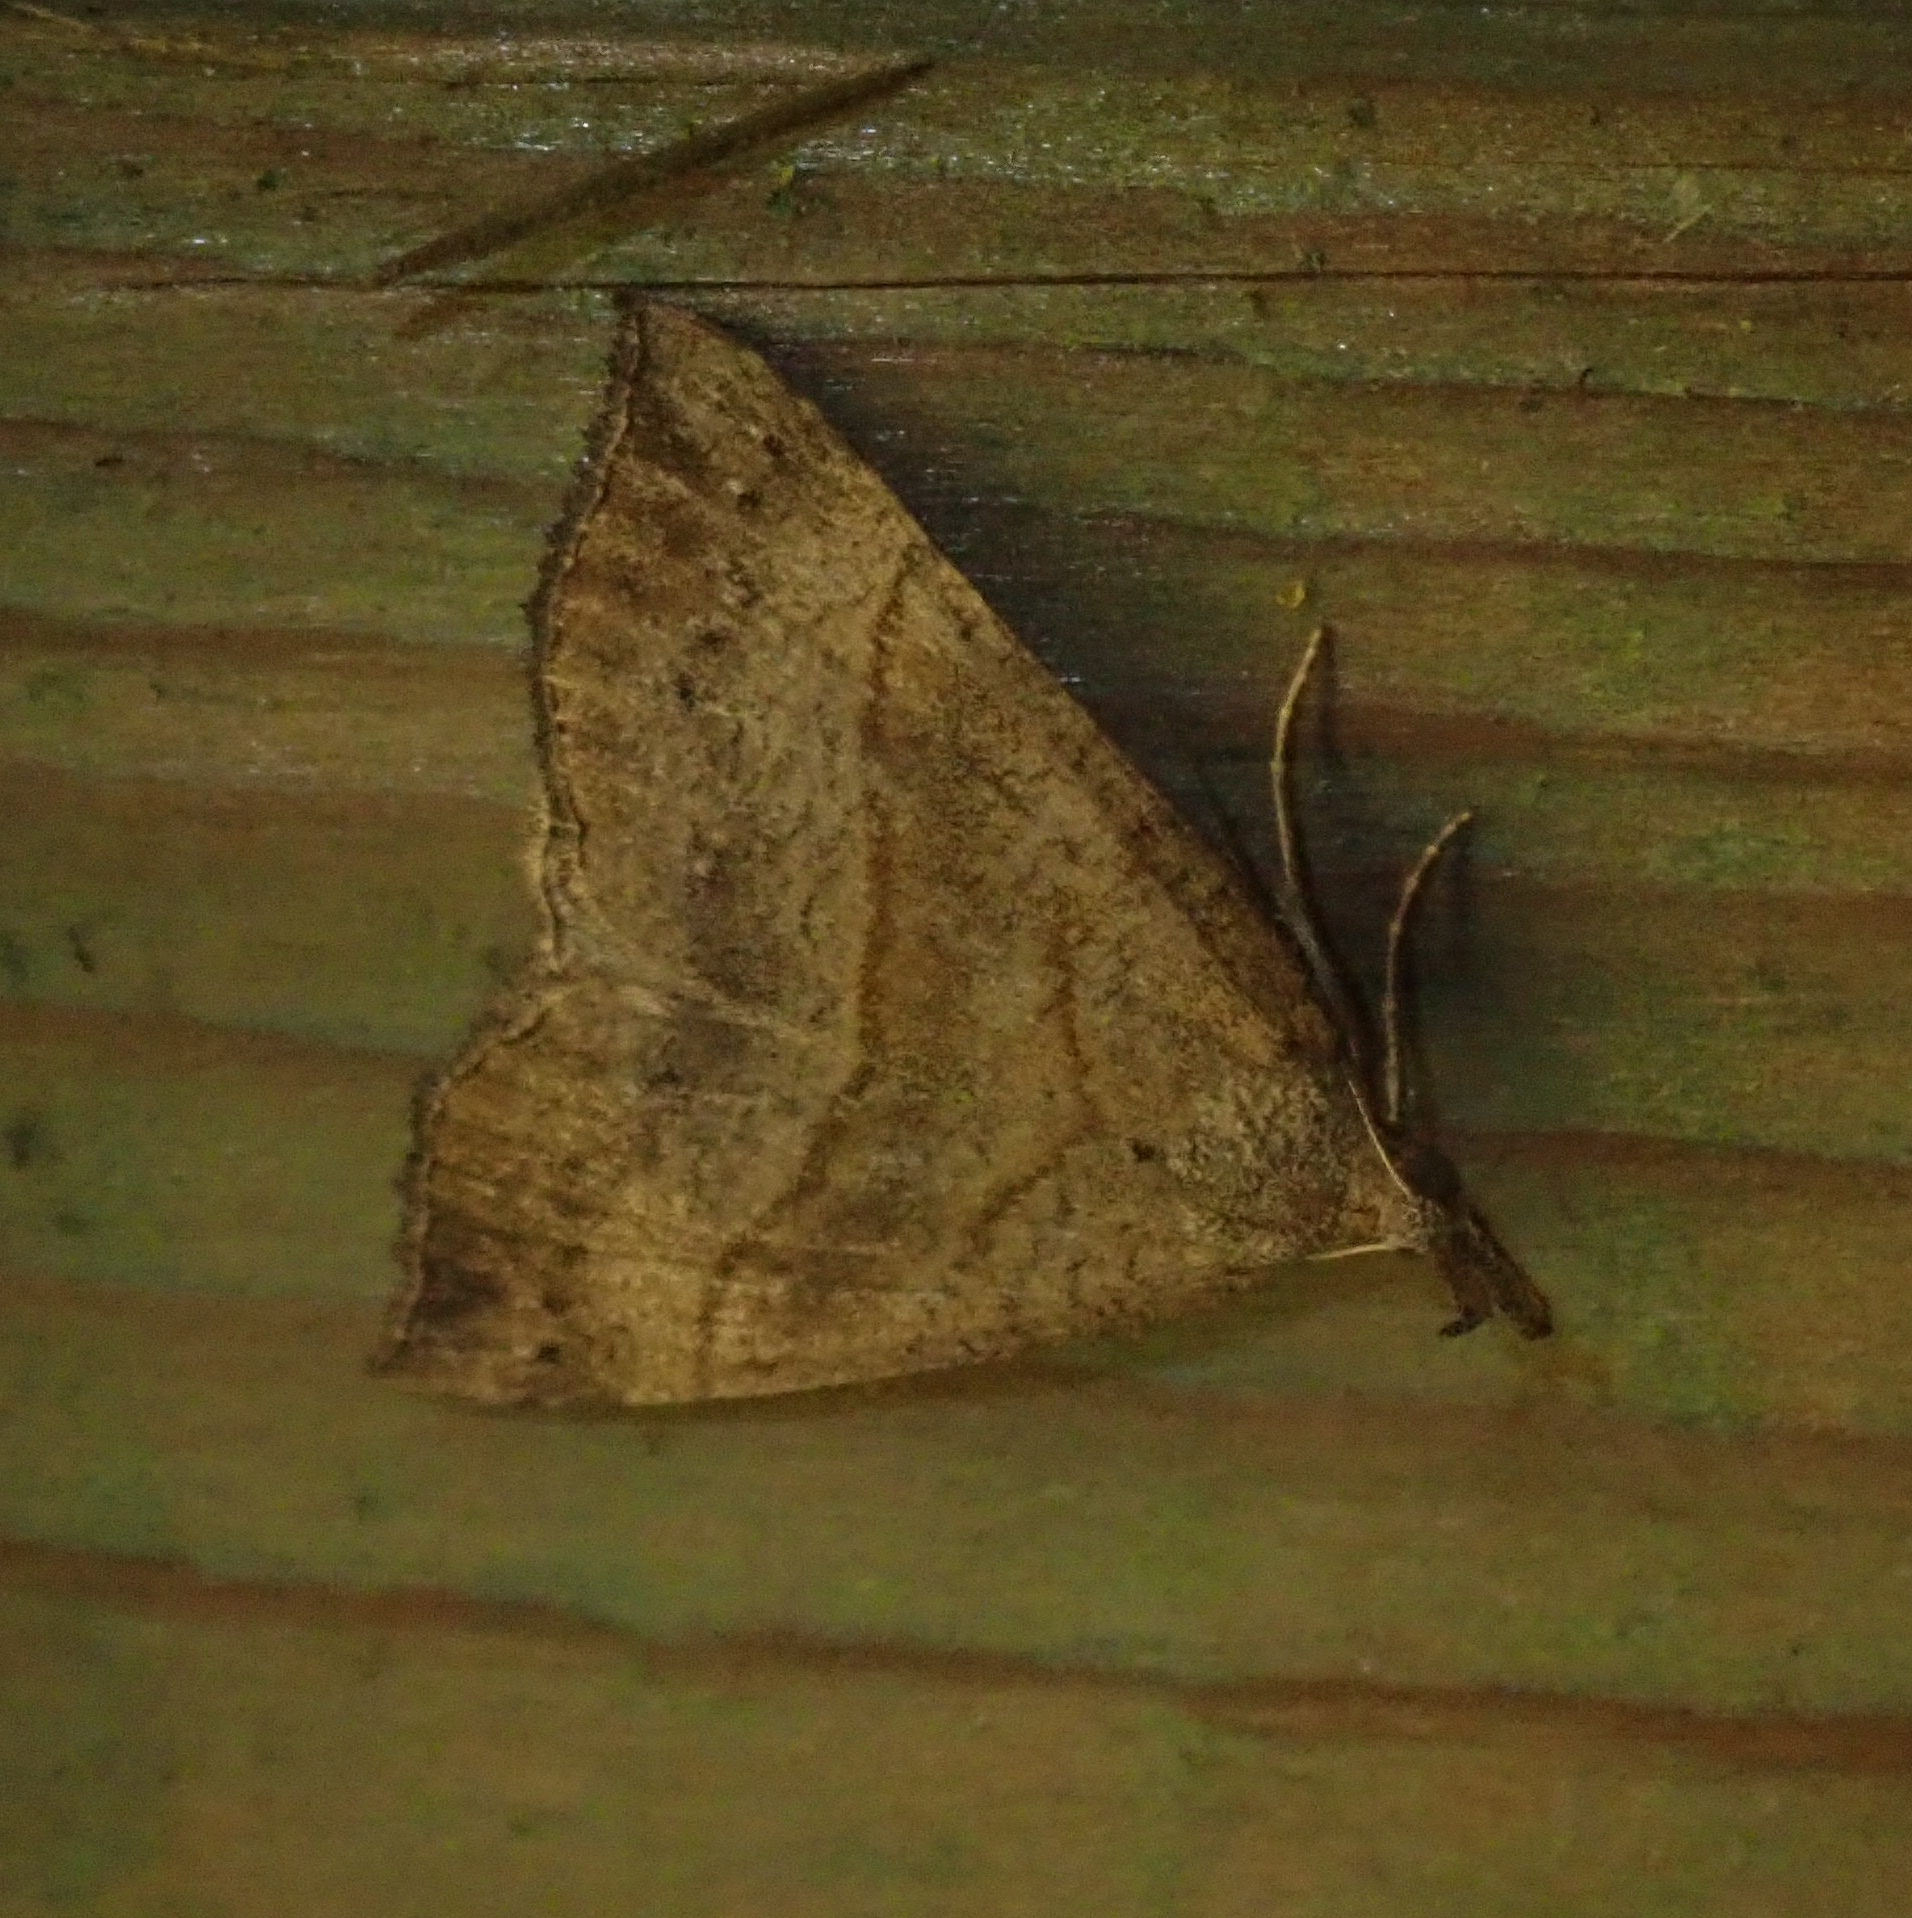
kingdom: Animalia
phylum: Arthropoda
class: Insecta
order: Lepidoptera
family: Erebidae
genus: Hypena
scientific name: Hypena proboscidalis
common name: Snout
